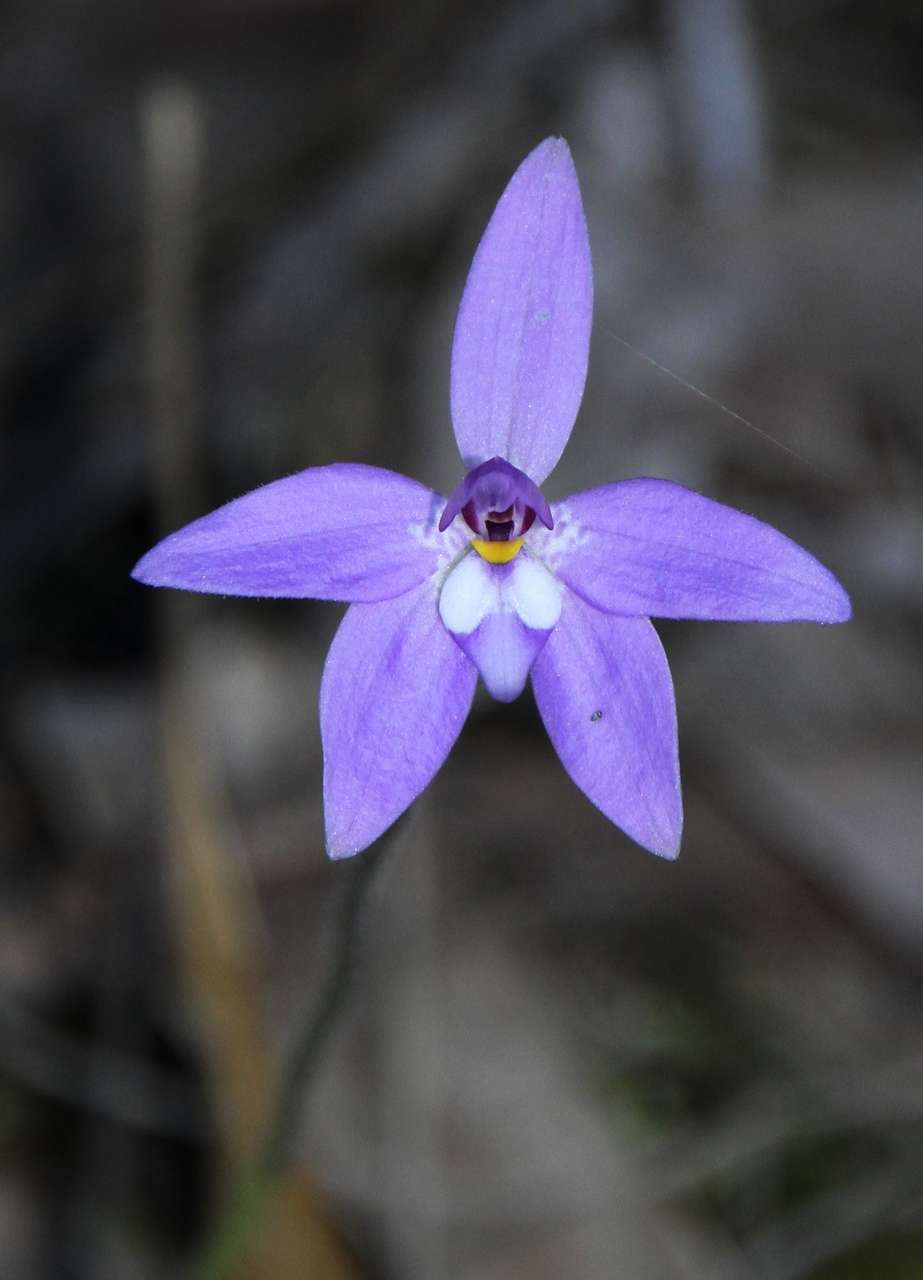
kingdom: Plantae
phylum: Tracheophyta
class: Liliopsida
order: Asparagales
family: Orchidaceae
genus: Caladenia
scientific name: Caladenia major
